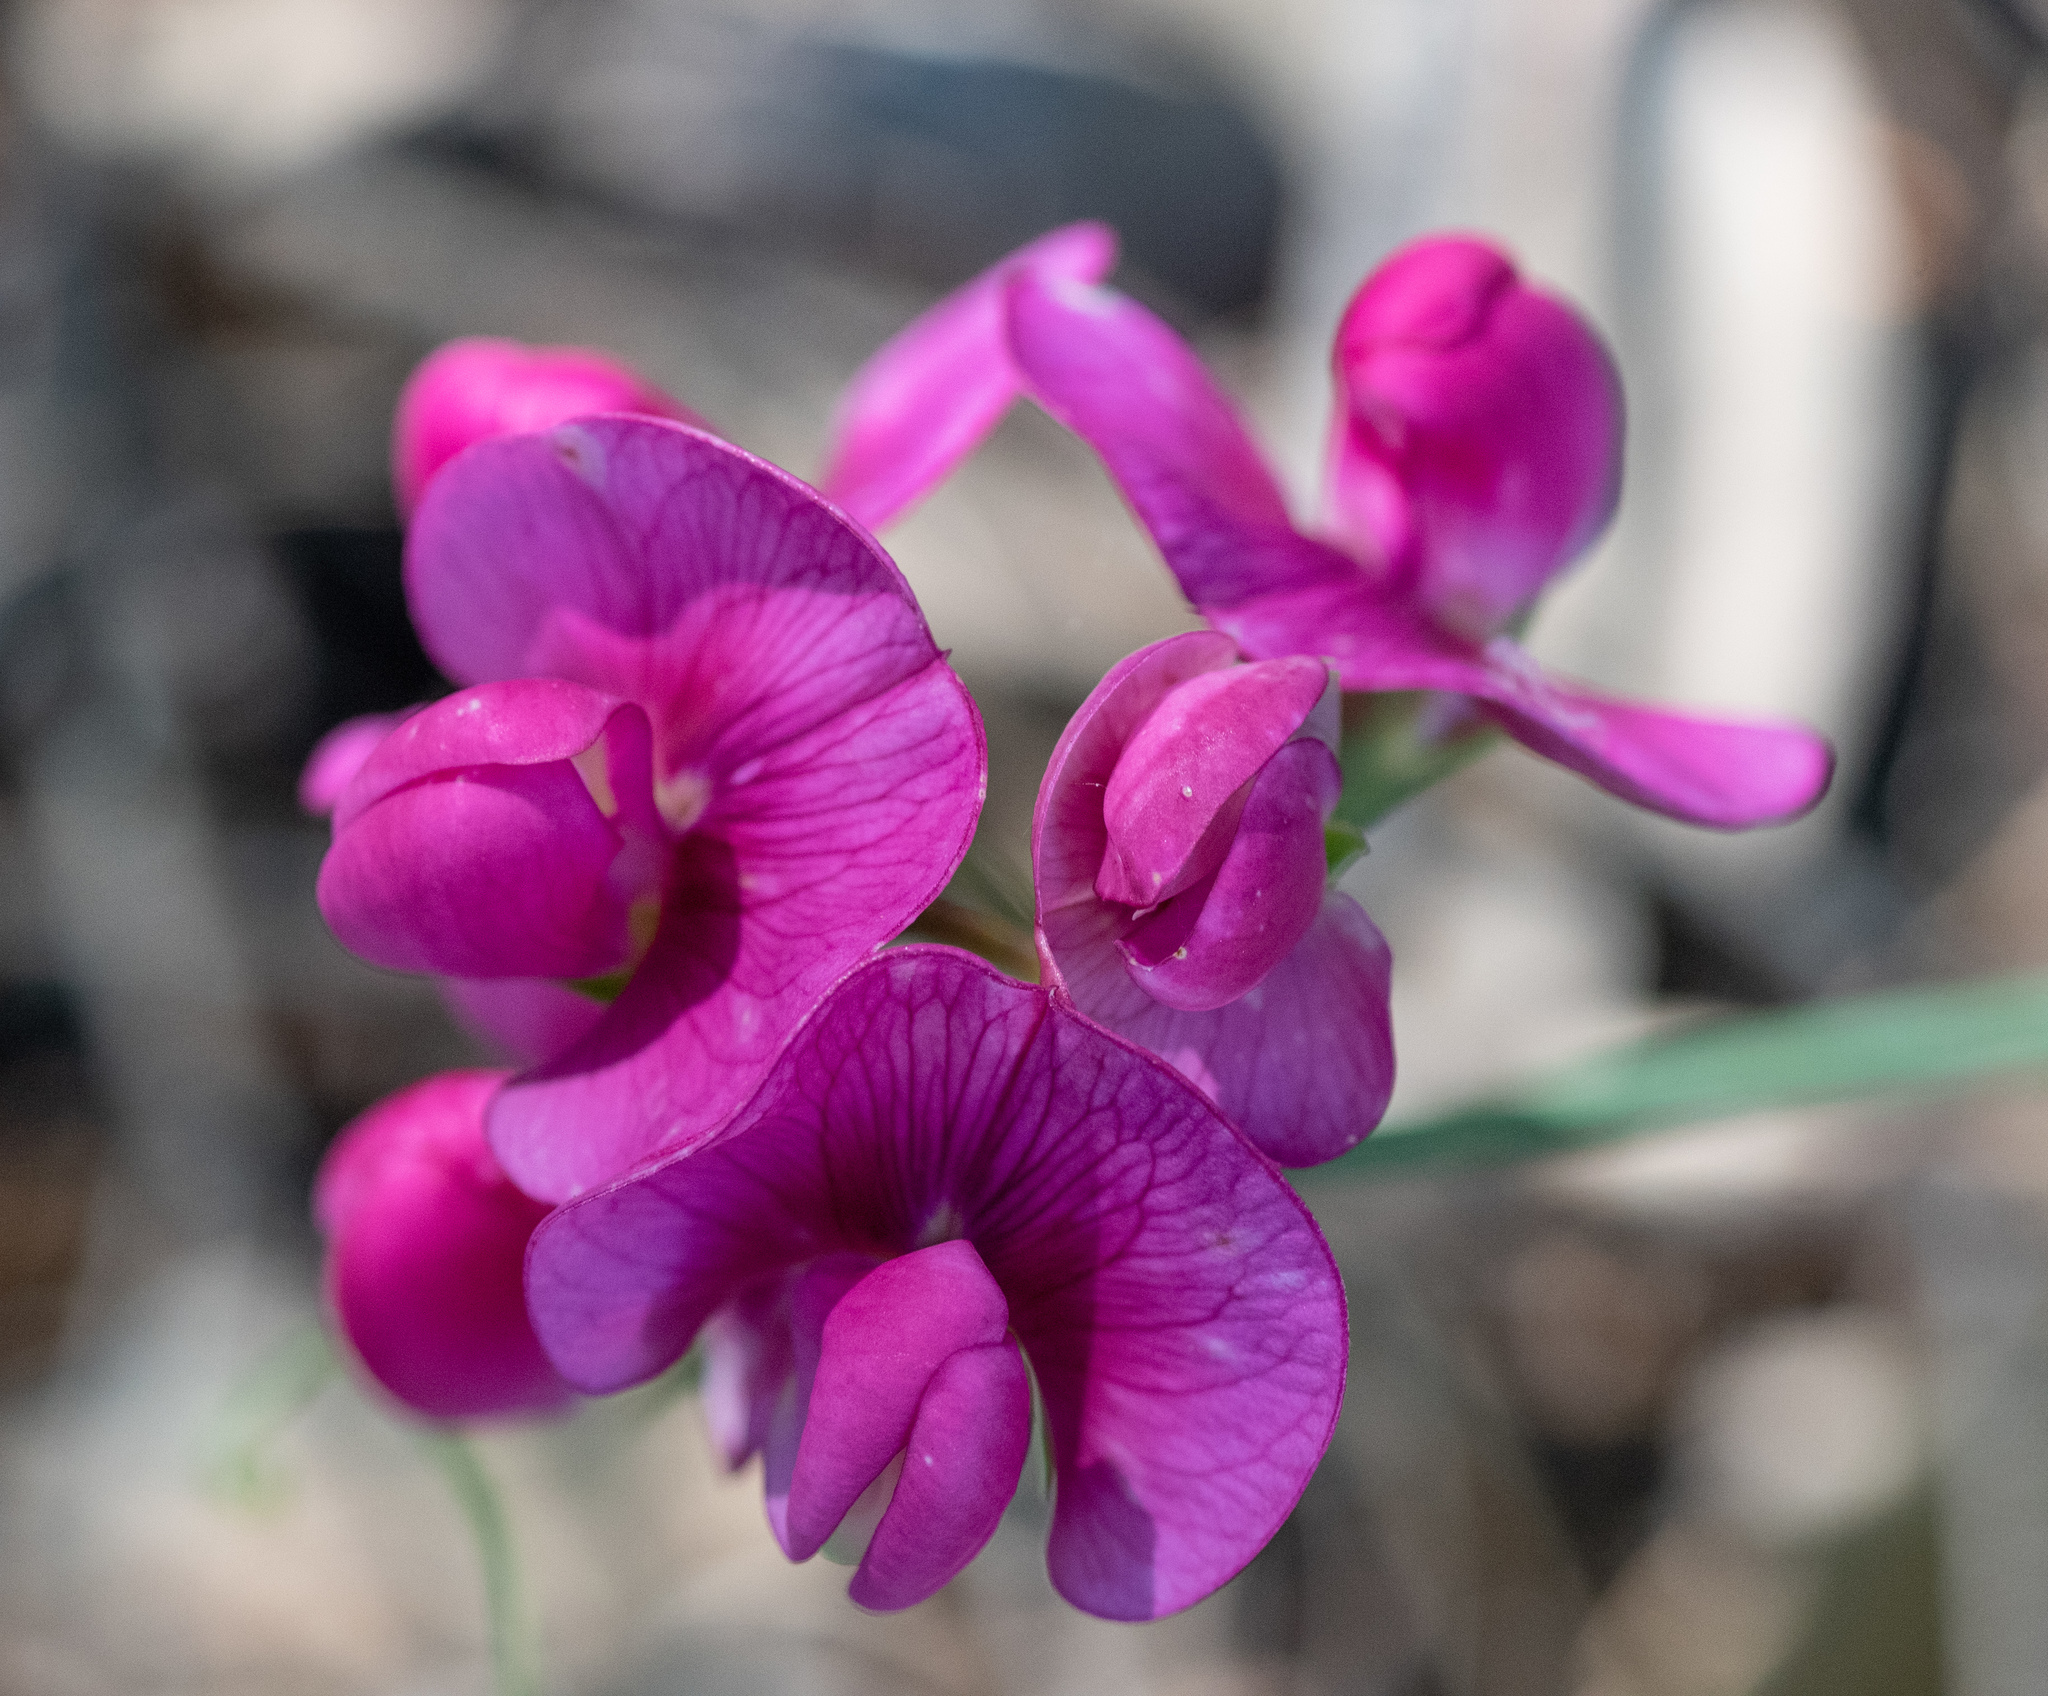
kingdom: Plantae
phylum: Tracheophyta
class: Magnoliopsida
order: Fabales
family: Fabaceae
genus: Lathyrus
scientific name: Lathyrus latifolius
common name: Perennial pea
